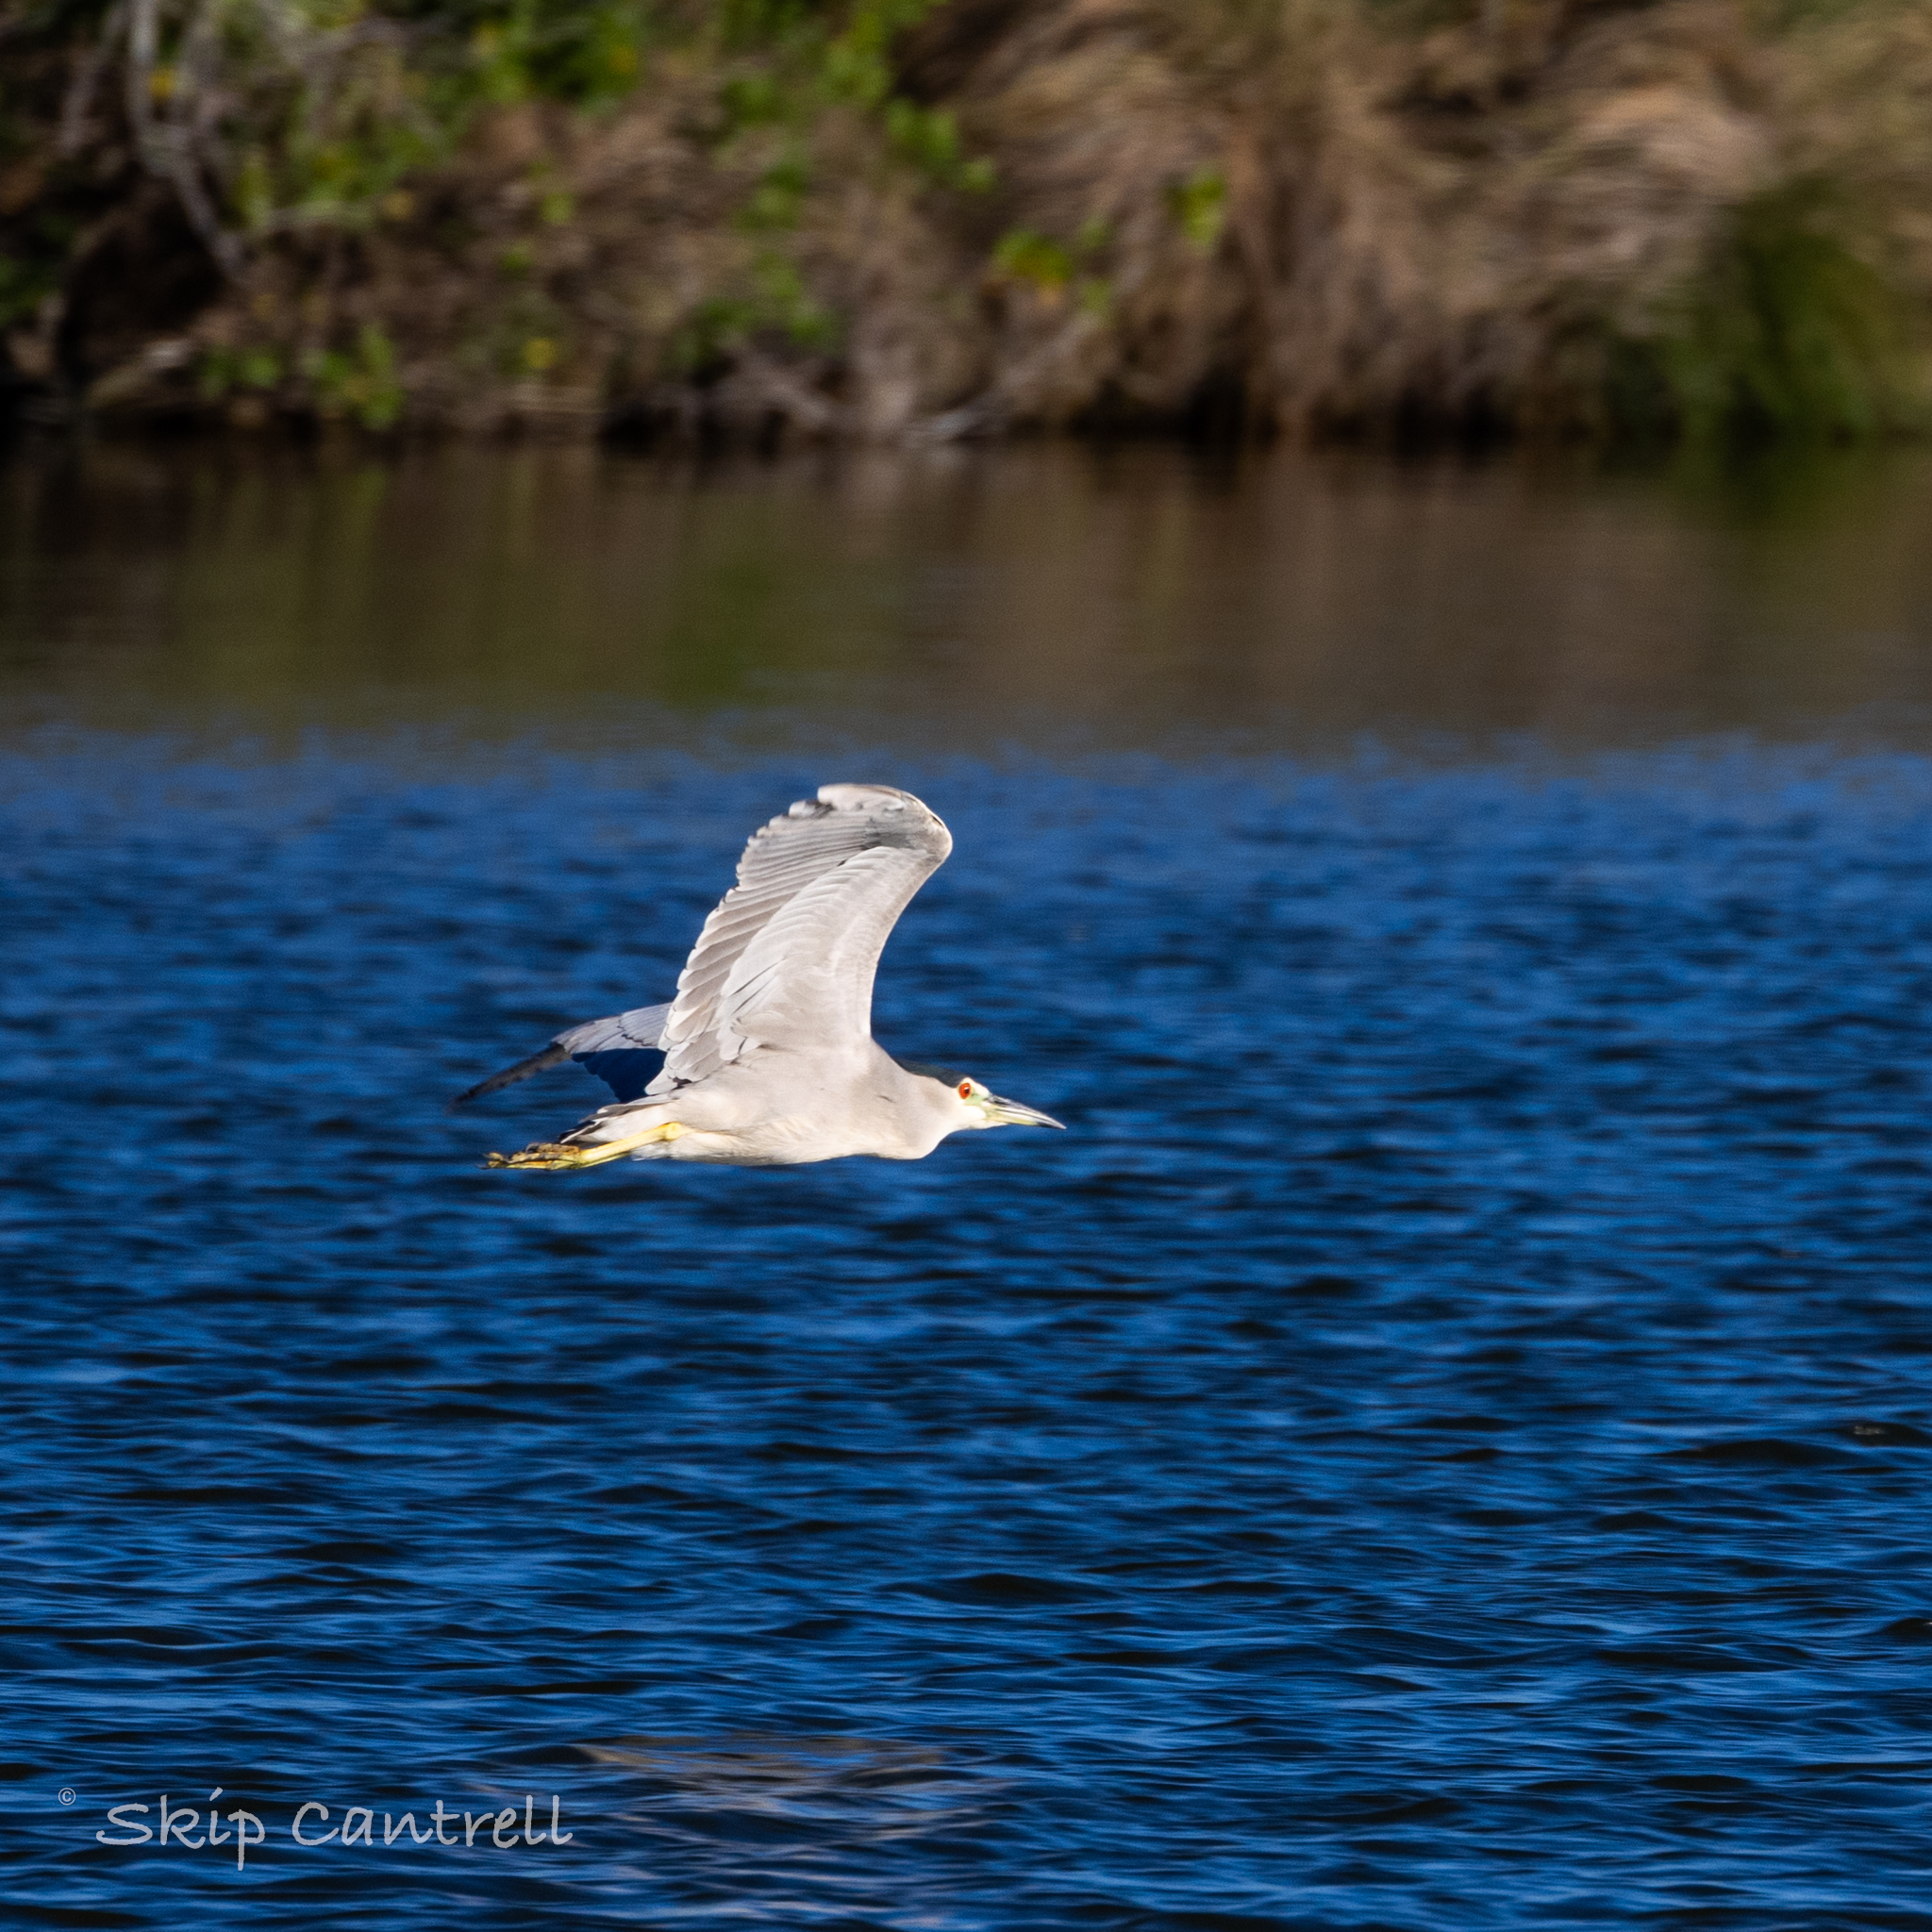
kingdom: Animalia
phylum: Chordata
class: Aves
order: Pelecaniformes
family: Ardeidae
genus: Nycticorax
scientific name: Nycticorax nycticorax
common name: Black-crowned night heron
